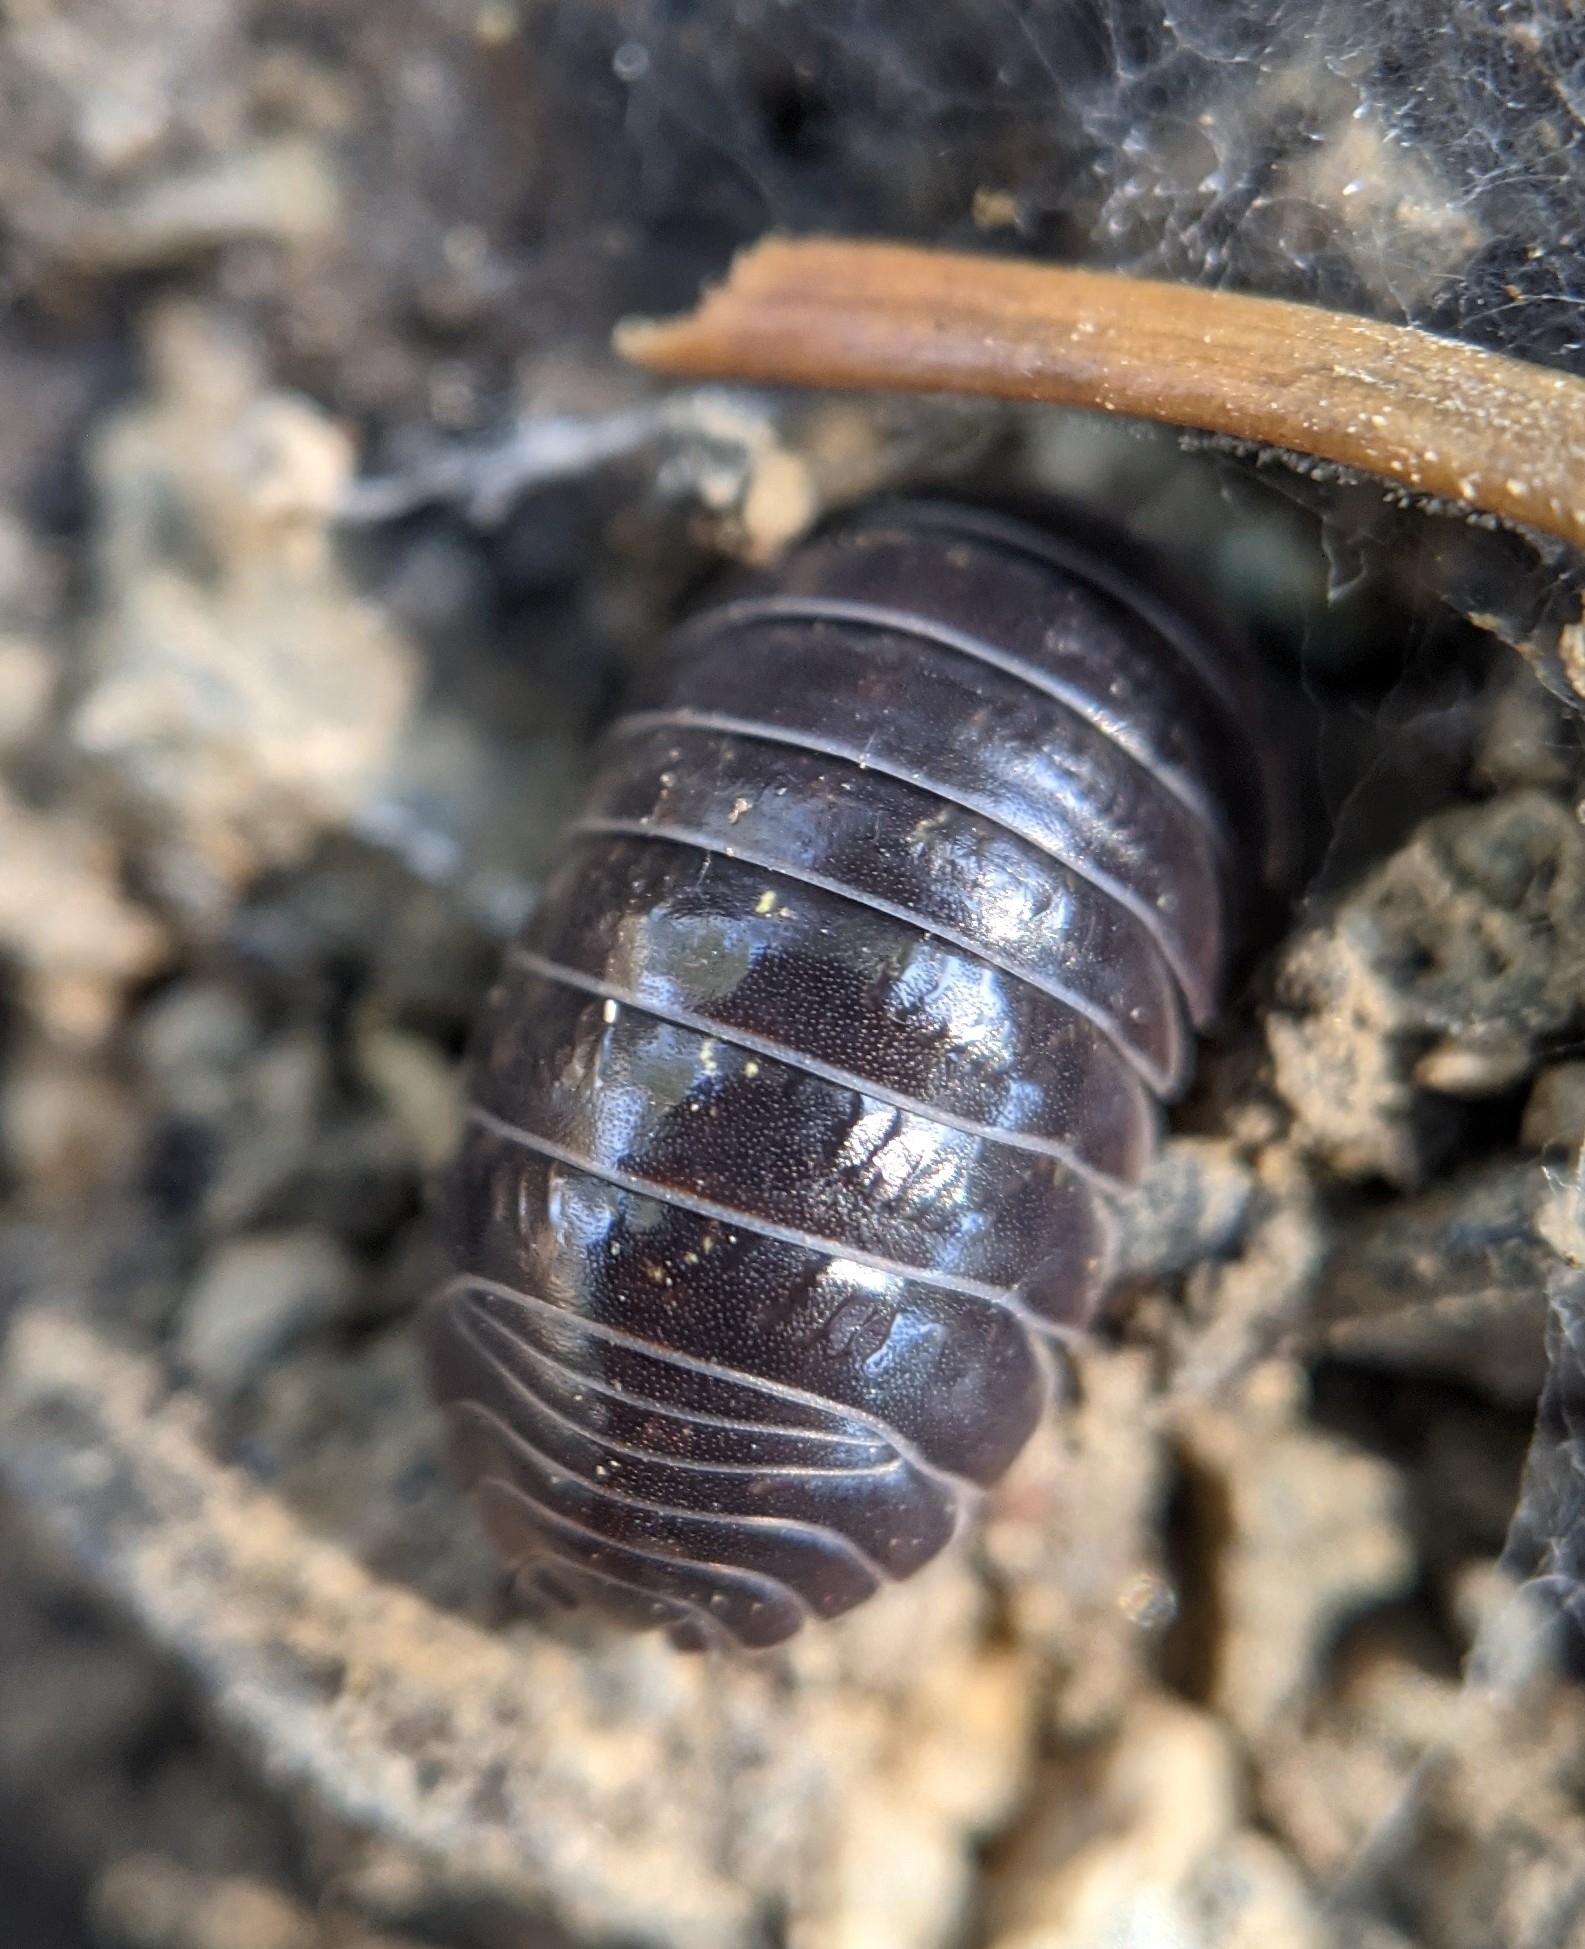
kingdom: Animalia
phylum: Arthropoda
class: Malacostraca
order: Isopoda
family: Armadillidiidae
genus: Armadillidium
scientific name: Armadillidium vulgare
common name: Common pill woodlouse
